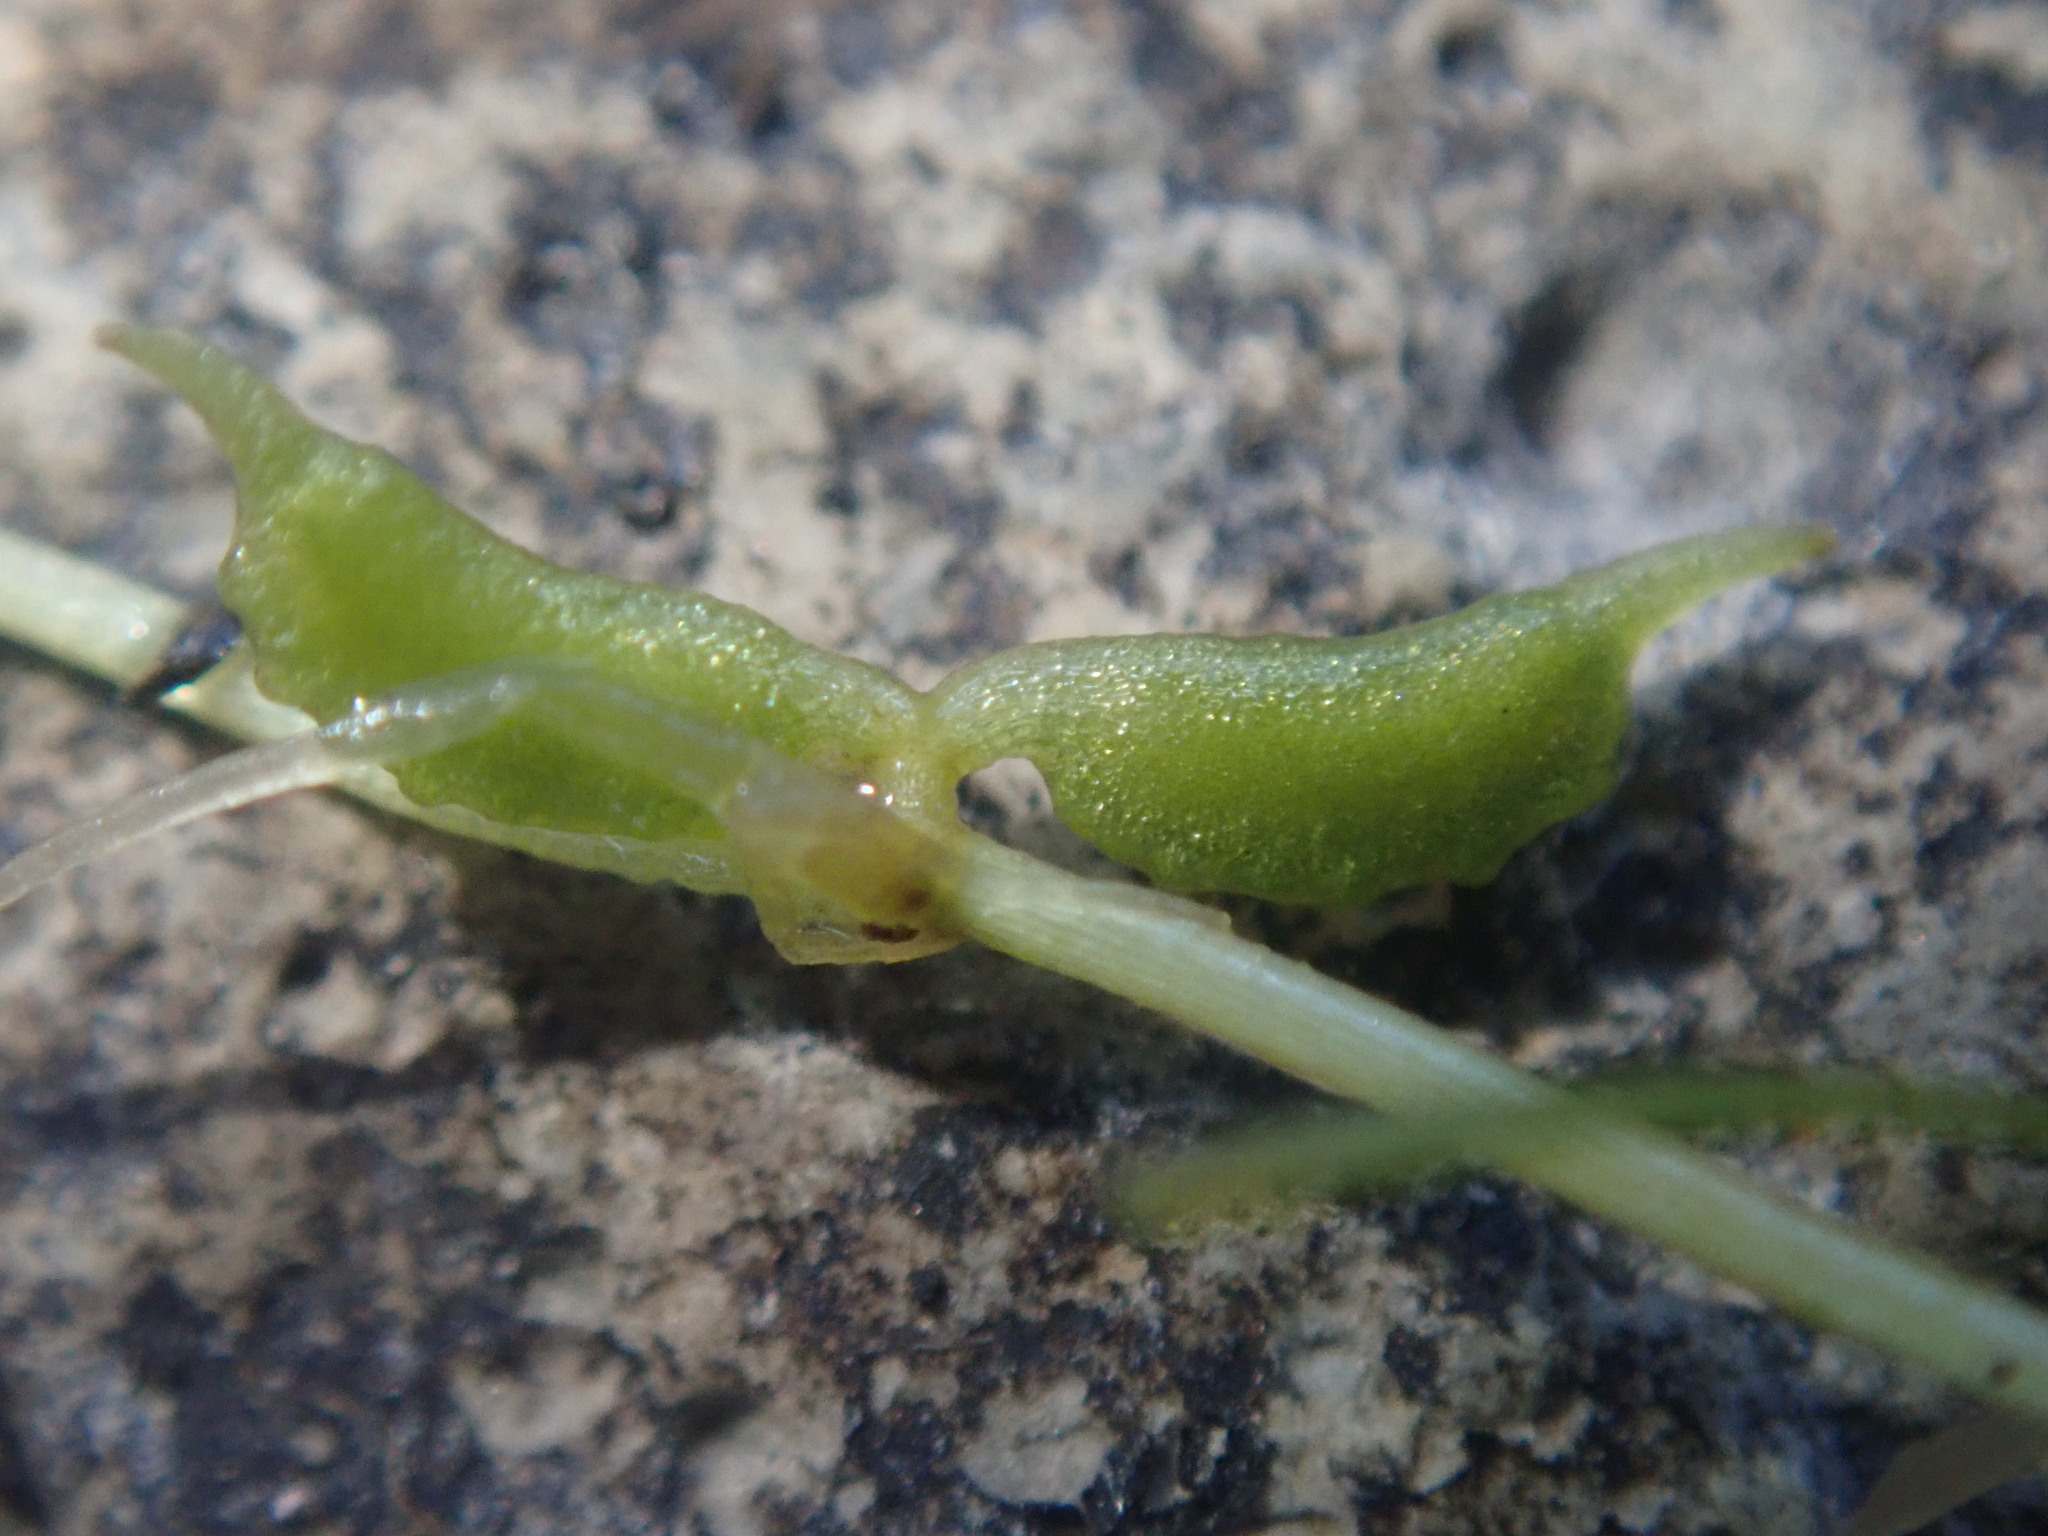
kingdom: Plantae
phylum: Tracheophyta
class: Liliopsida
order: Alismatales
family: Potamogetonaceae
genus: Zannichellia
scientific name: Zannichellia palustris
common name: Horned pondweed
